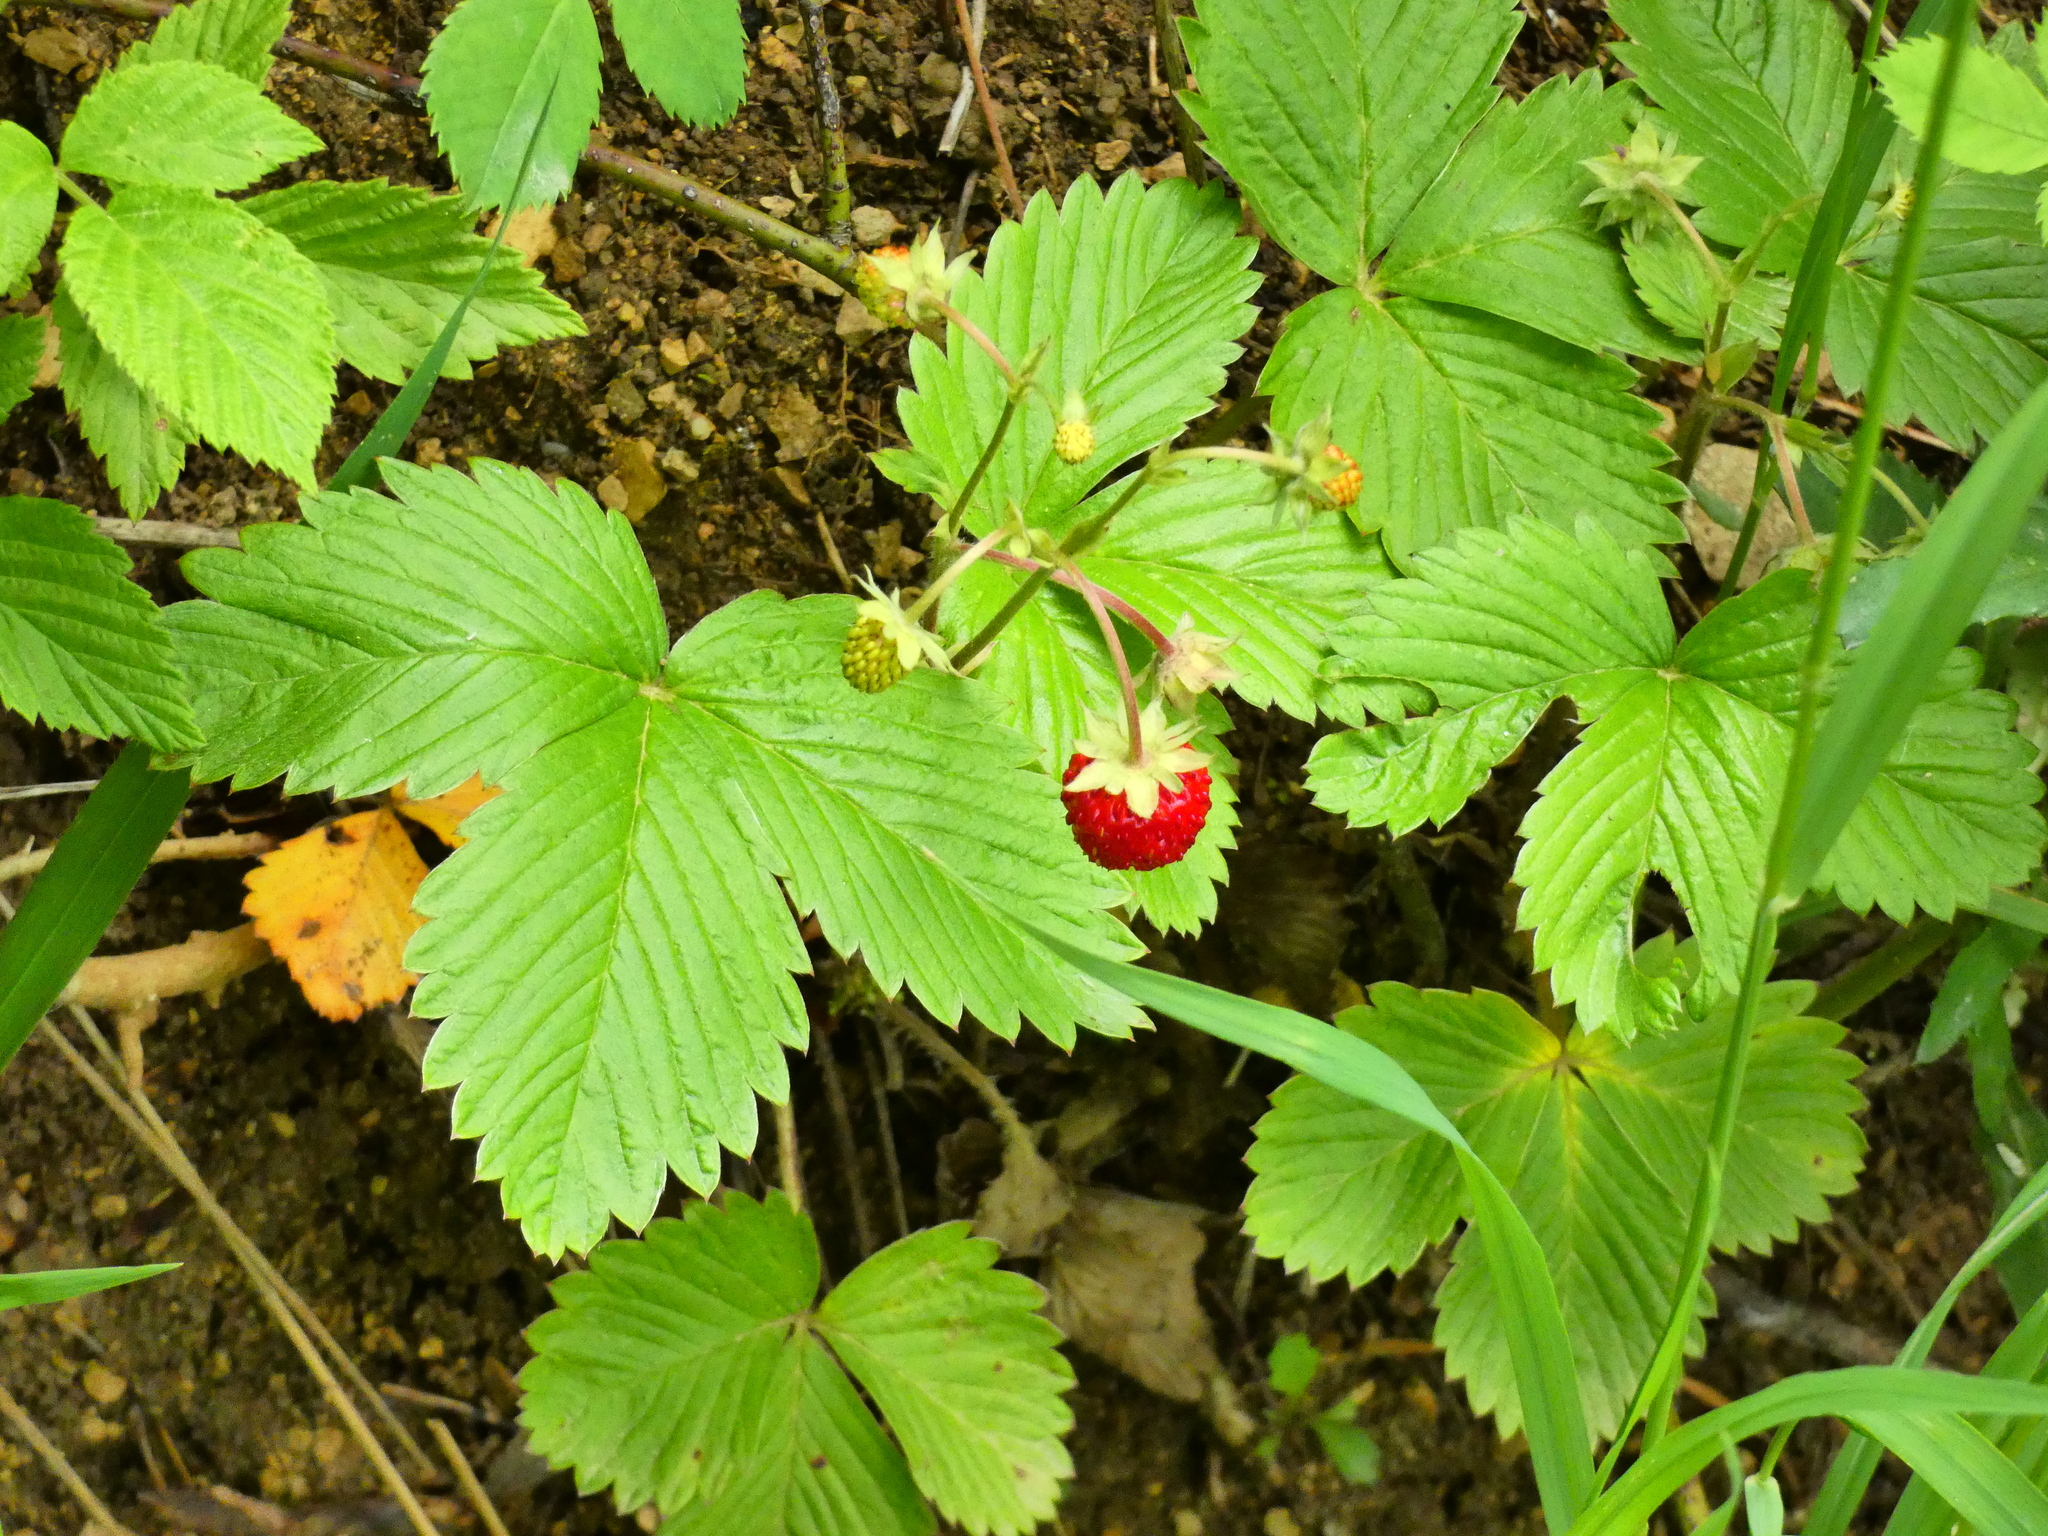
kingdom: Plantae
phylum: Tracheophyta
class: Magnoliopsida
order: Rosales
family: Rosaceae
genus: Fragaria
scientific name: Fragaria vesca
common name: Wild strawberry
